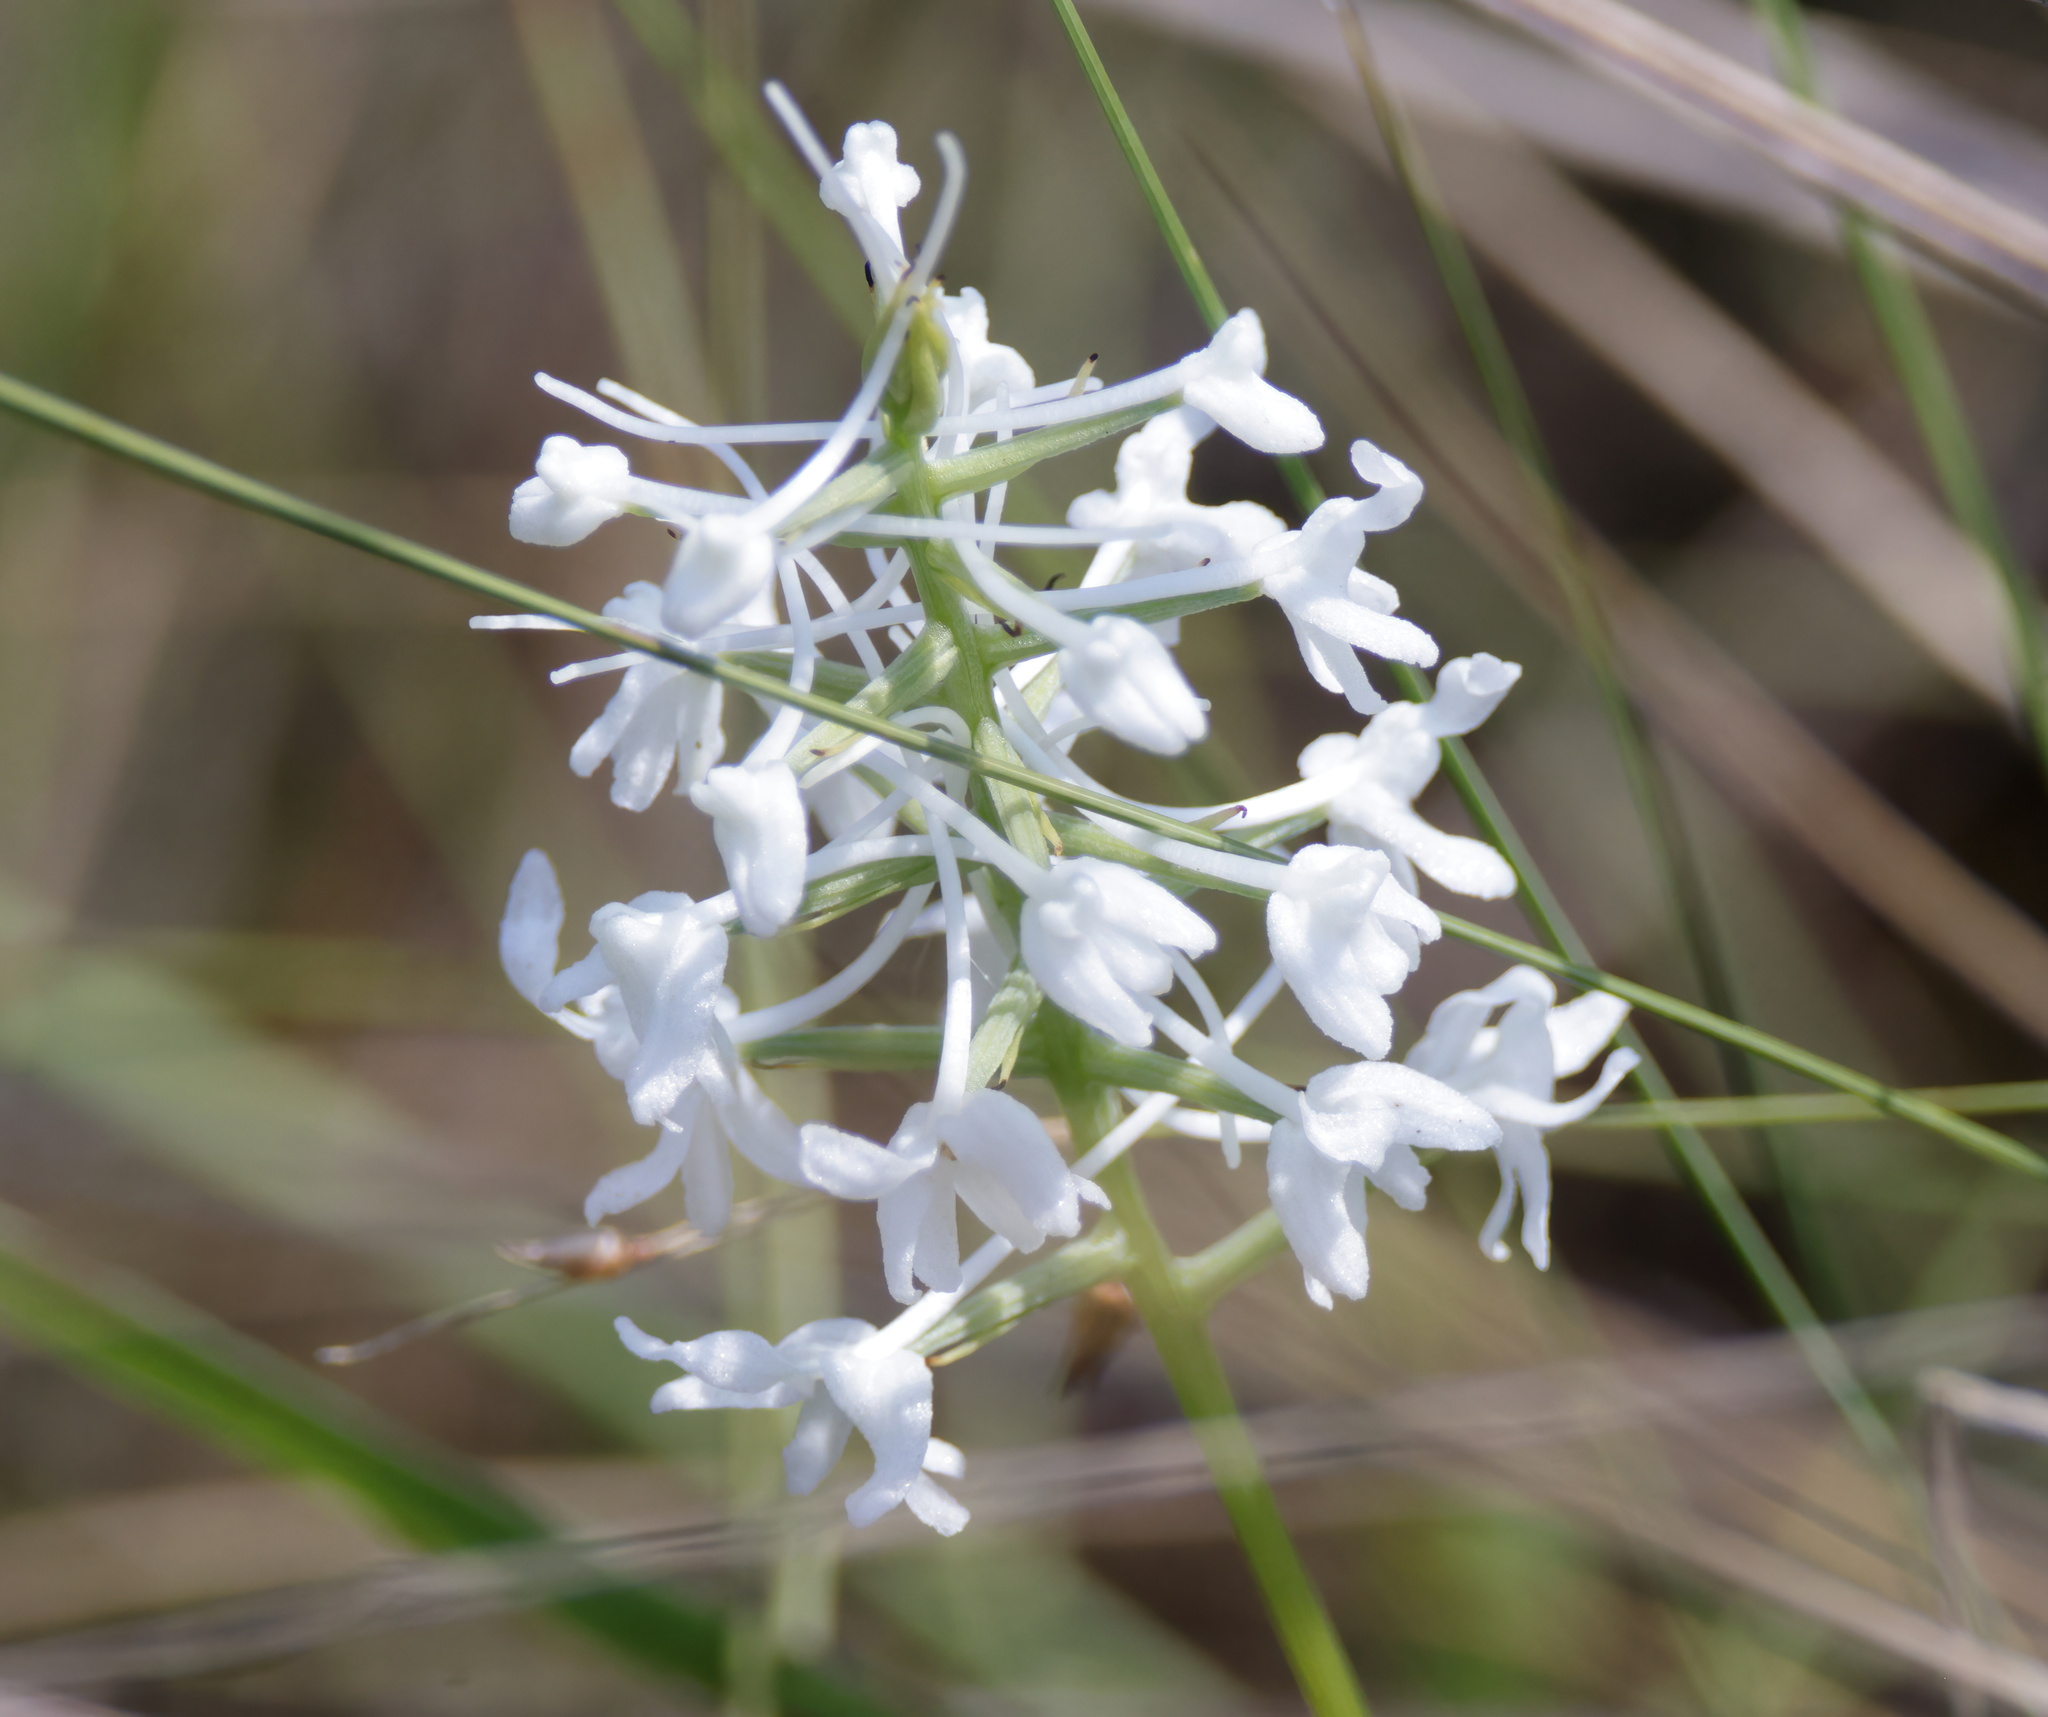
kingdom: Plantae
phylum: Tracheophyta
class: Liliopsida
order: Asparagales
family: Orchidaceae
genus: Platanthera
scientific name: Platanthera nivea
